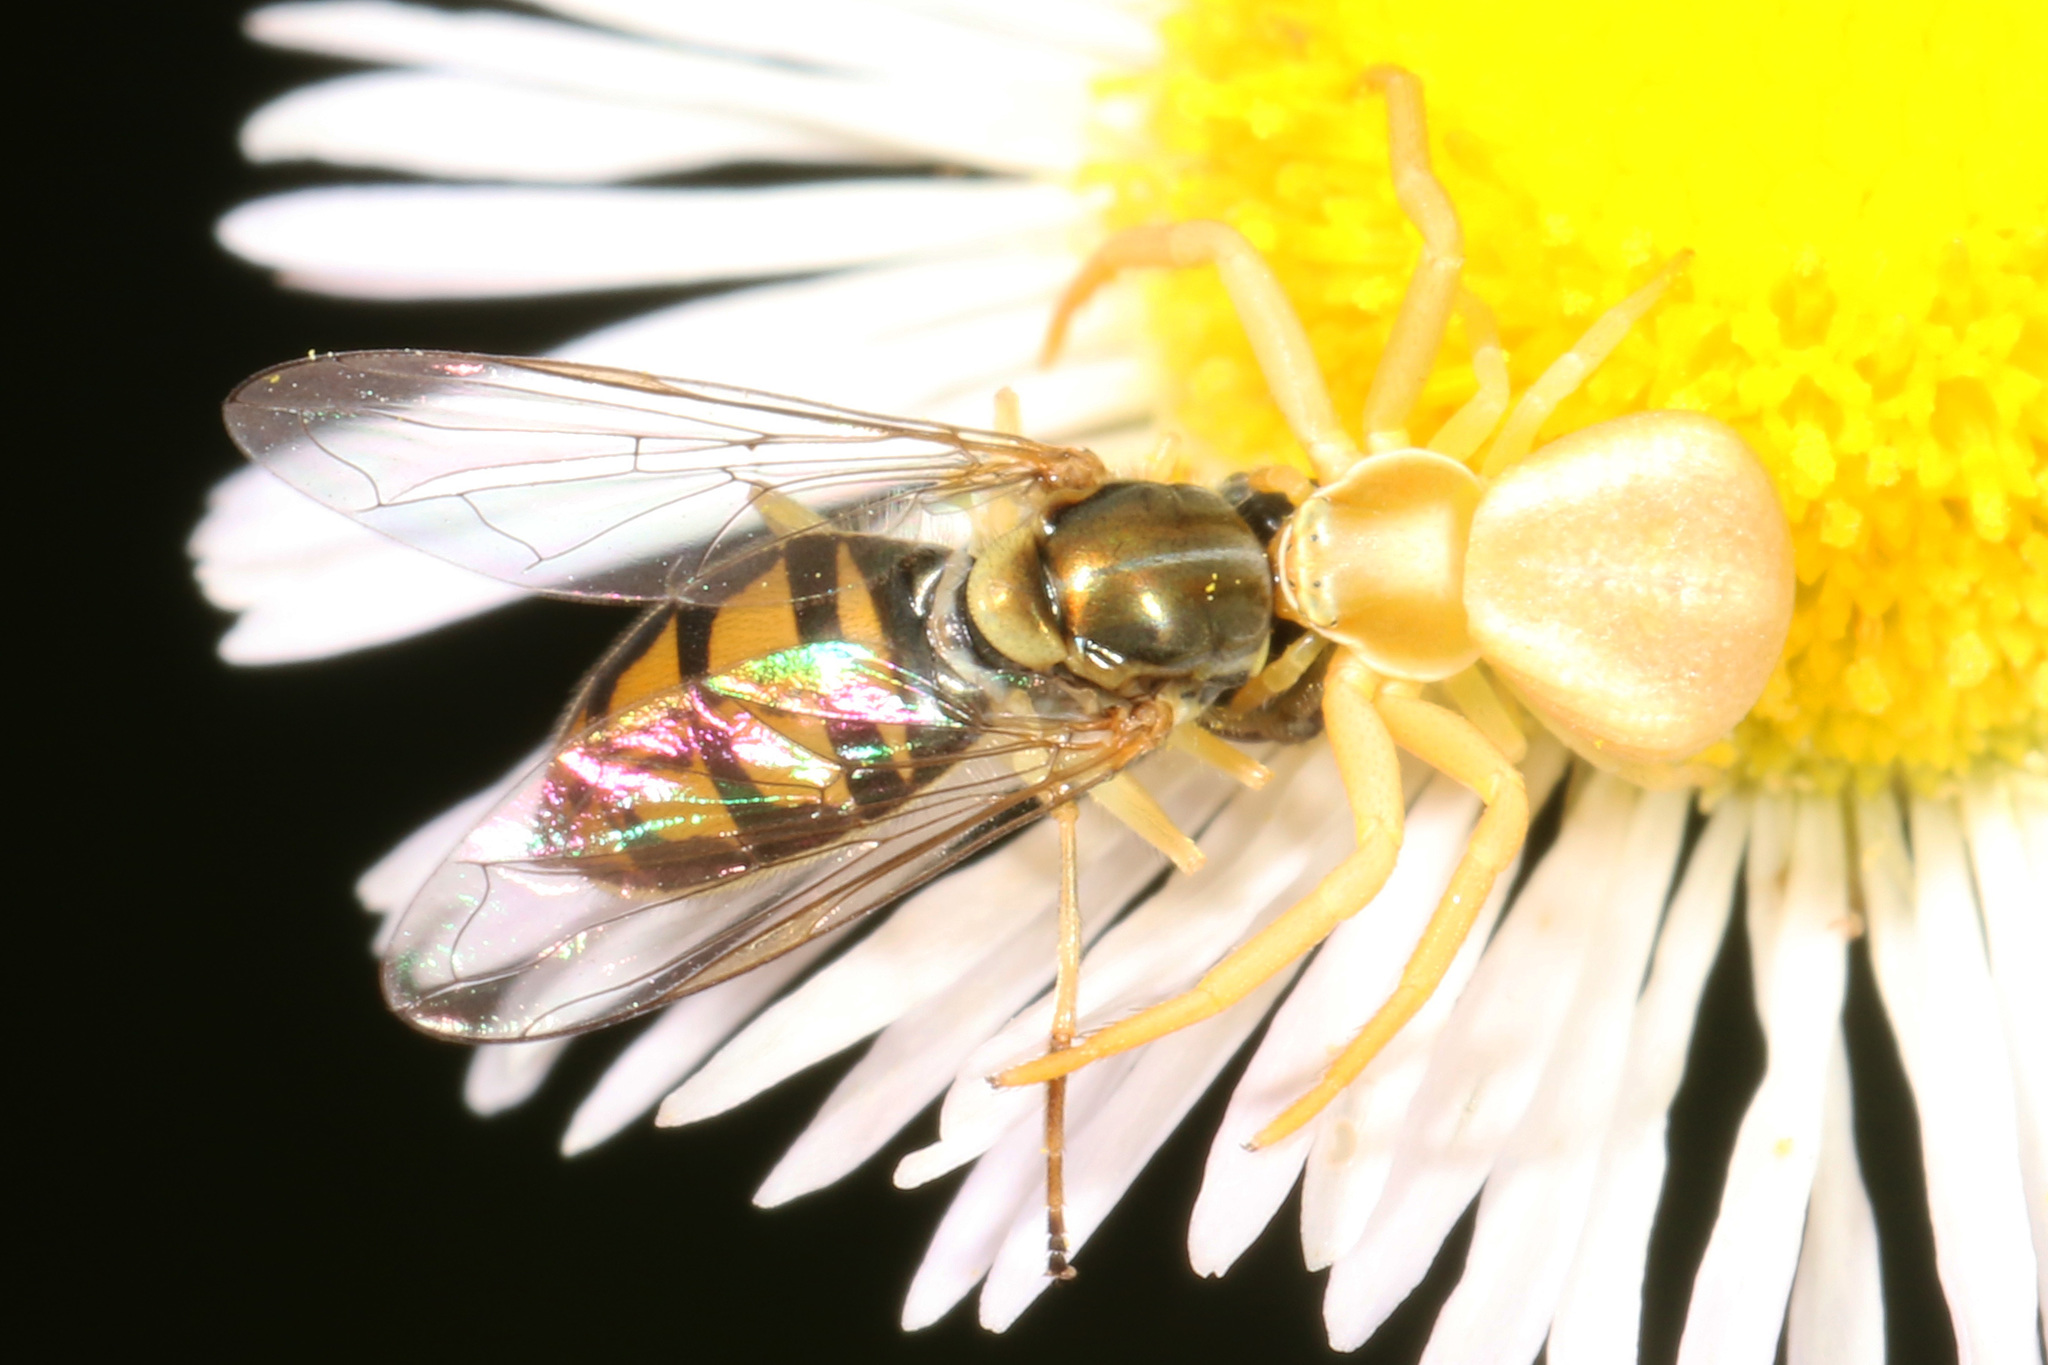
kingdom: Animalia
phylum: Arthropoda
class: Arachnida
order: Araneae
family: Thomisidae
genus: Misumenoides
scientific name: Misumenoides formosipes
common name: White-banded crab spider
